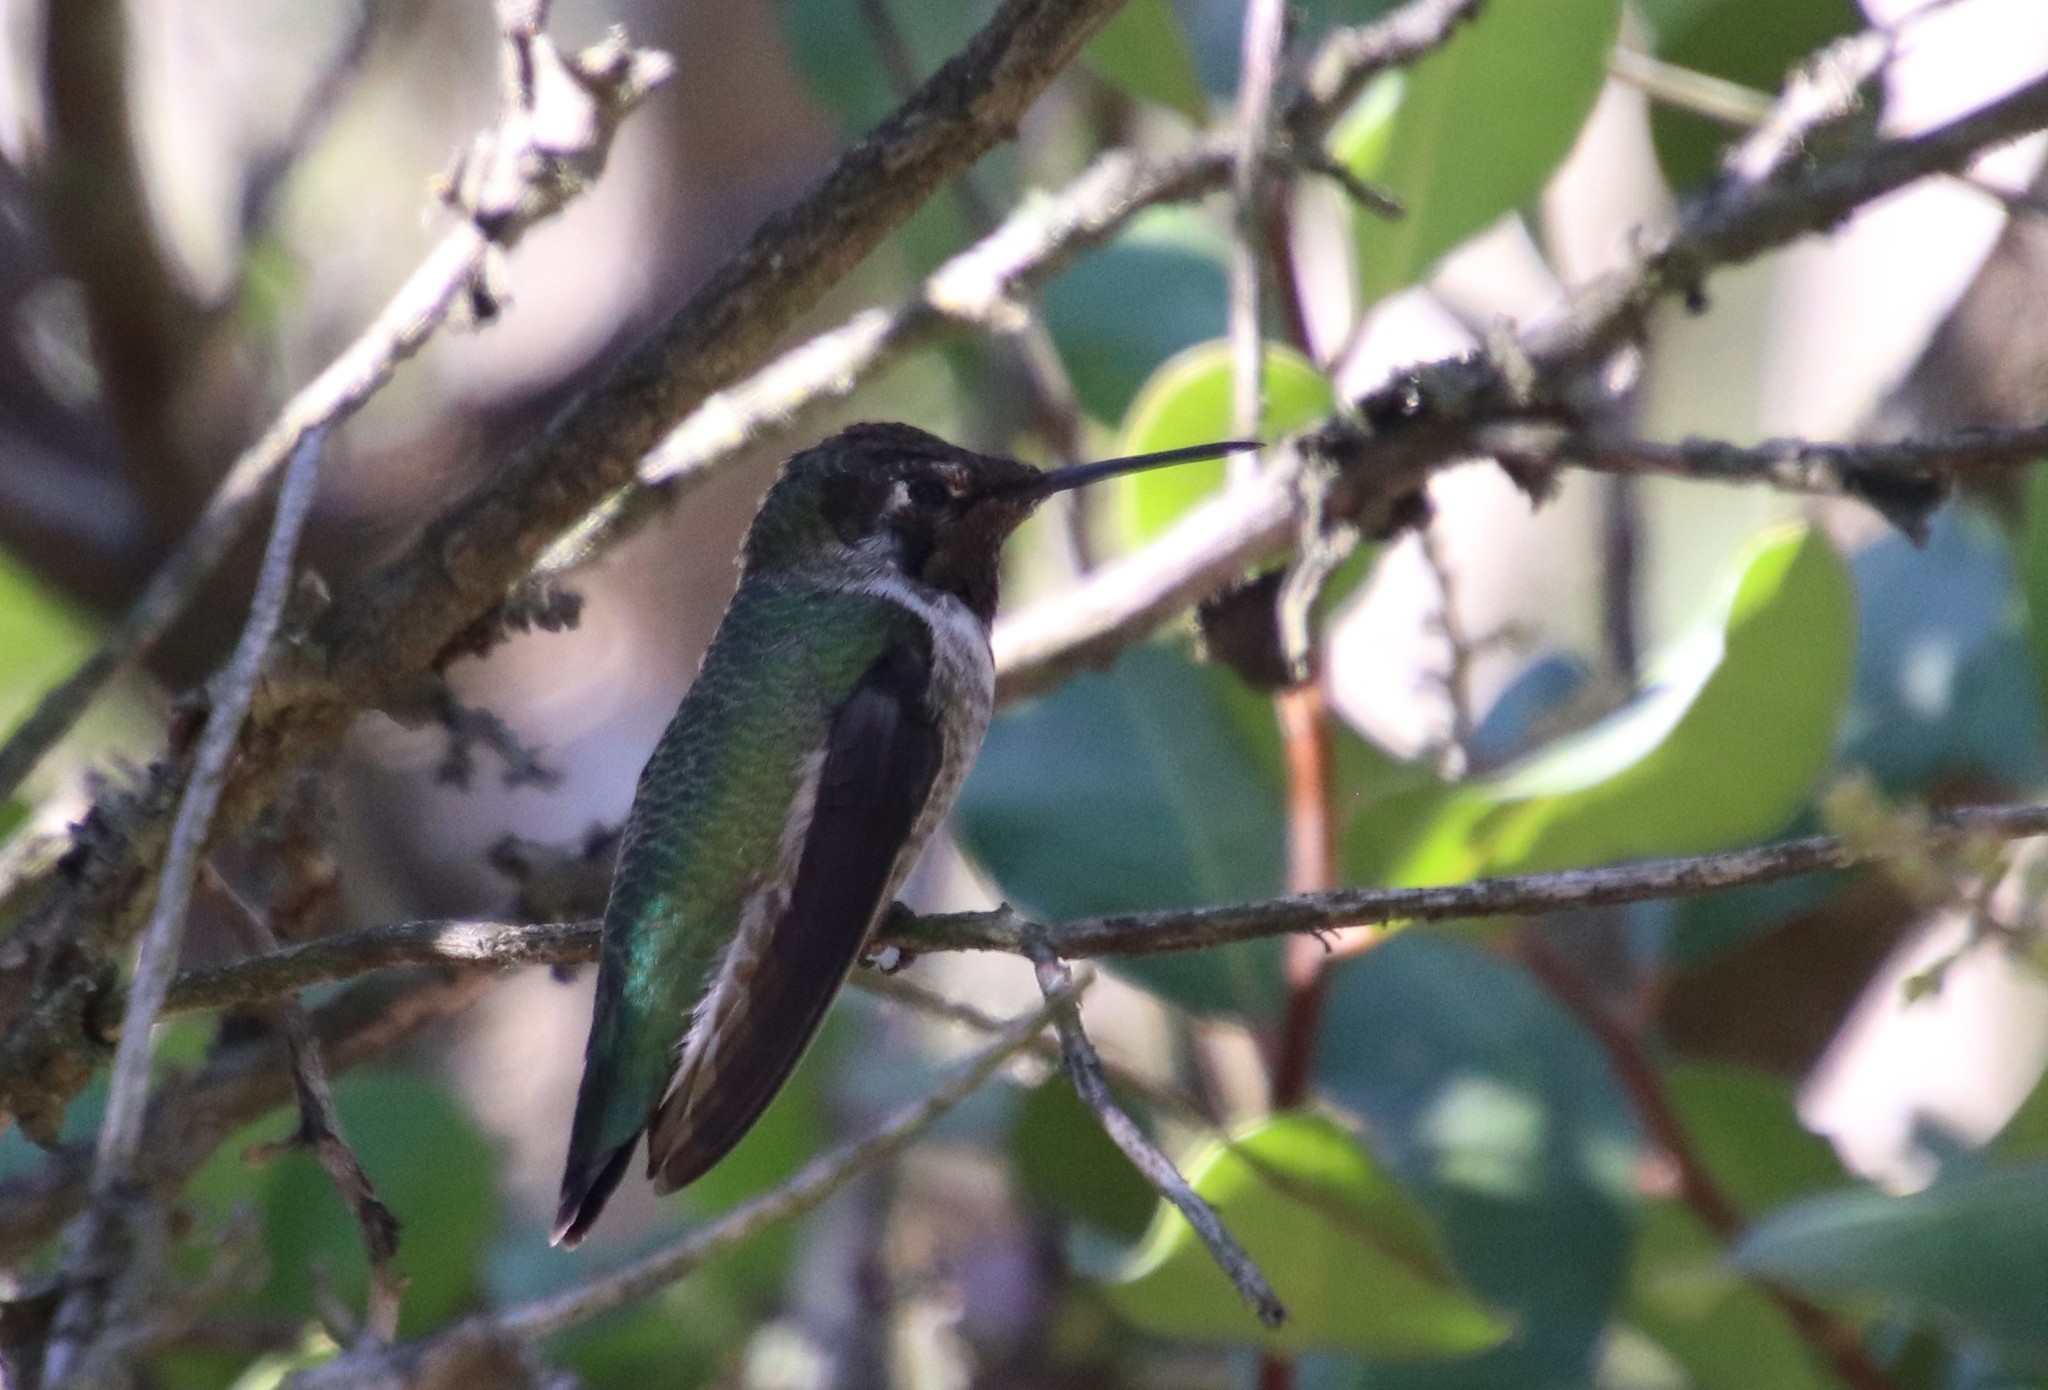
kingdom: Animalia
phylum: Chordata
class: Aves
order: Apodiformes
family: Trochilidae
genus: Calypte
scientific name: Calypte anna
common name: Anna's hummingbird
